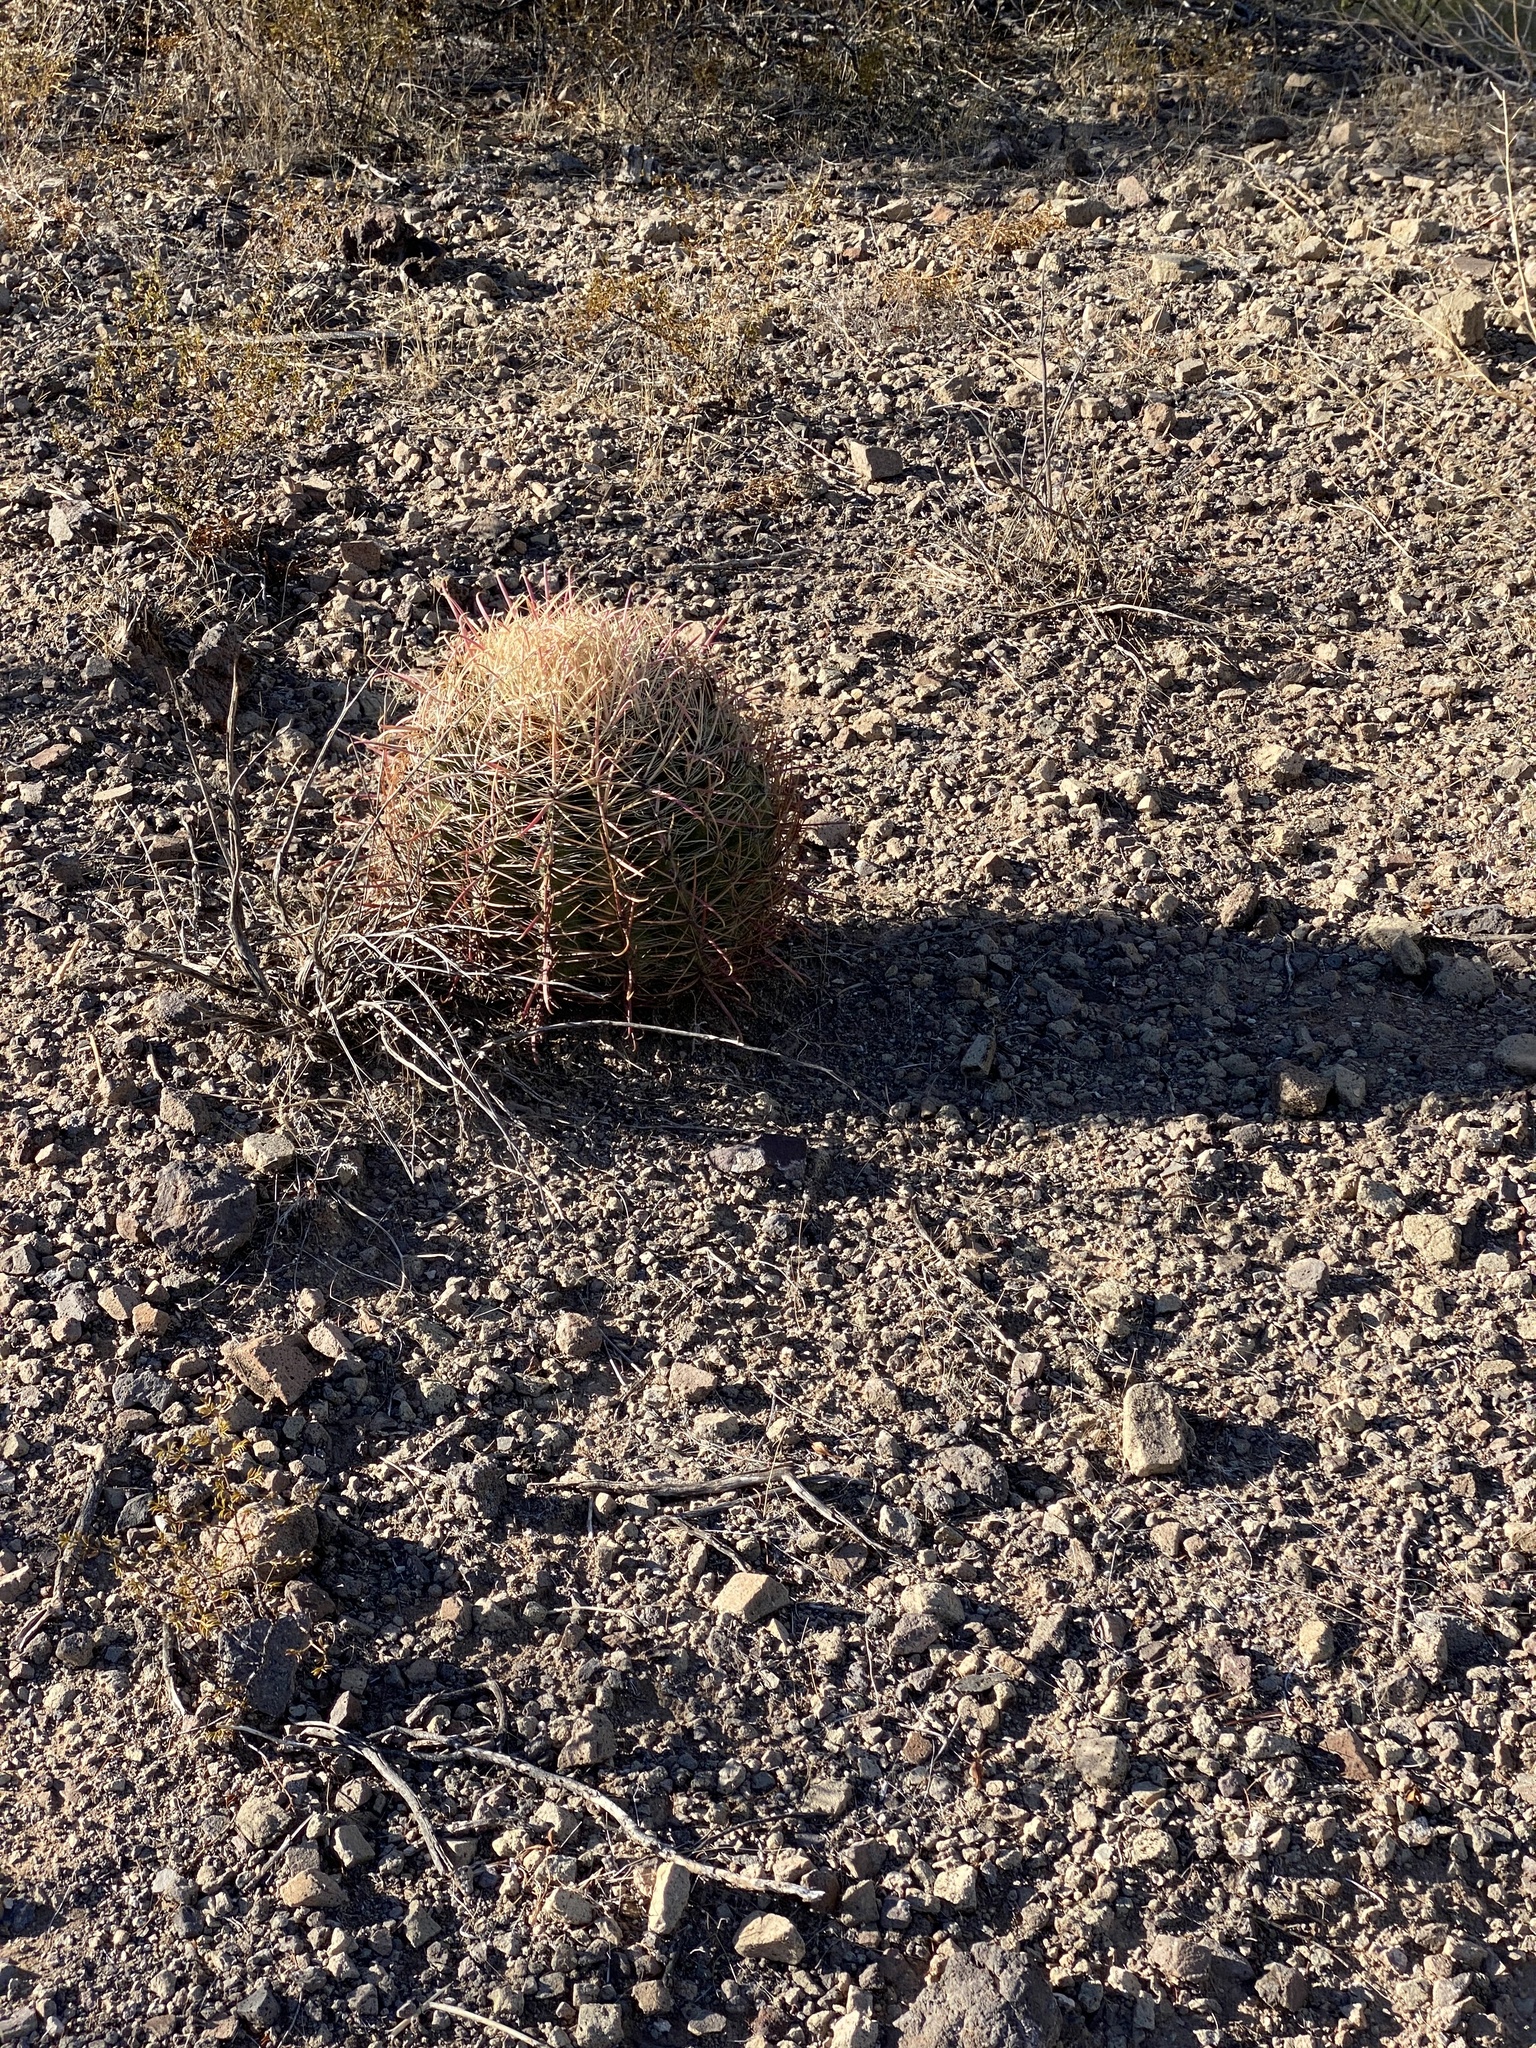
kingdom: Plantae
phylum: Tracheophyta
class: Magnoliopsida
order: Caryophyllales
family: Cactaceae
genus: Ferocactus
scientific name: Ferocactus cylindraceus
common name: California barrel cactus
